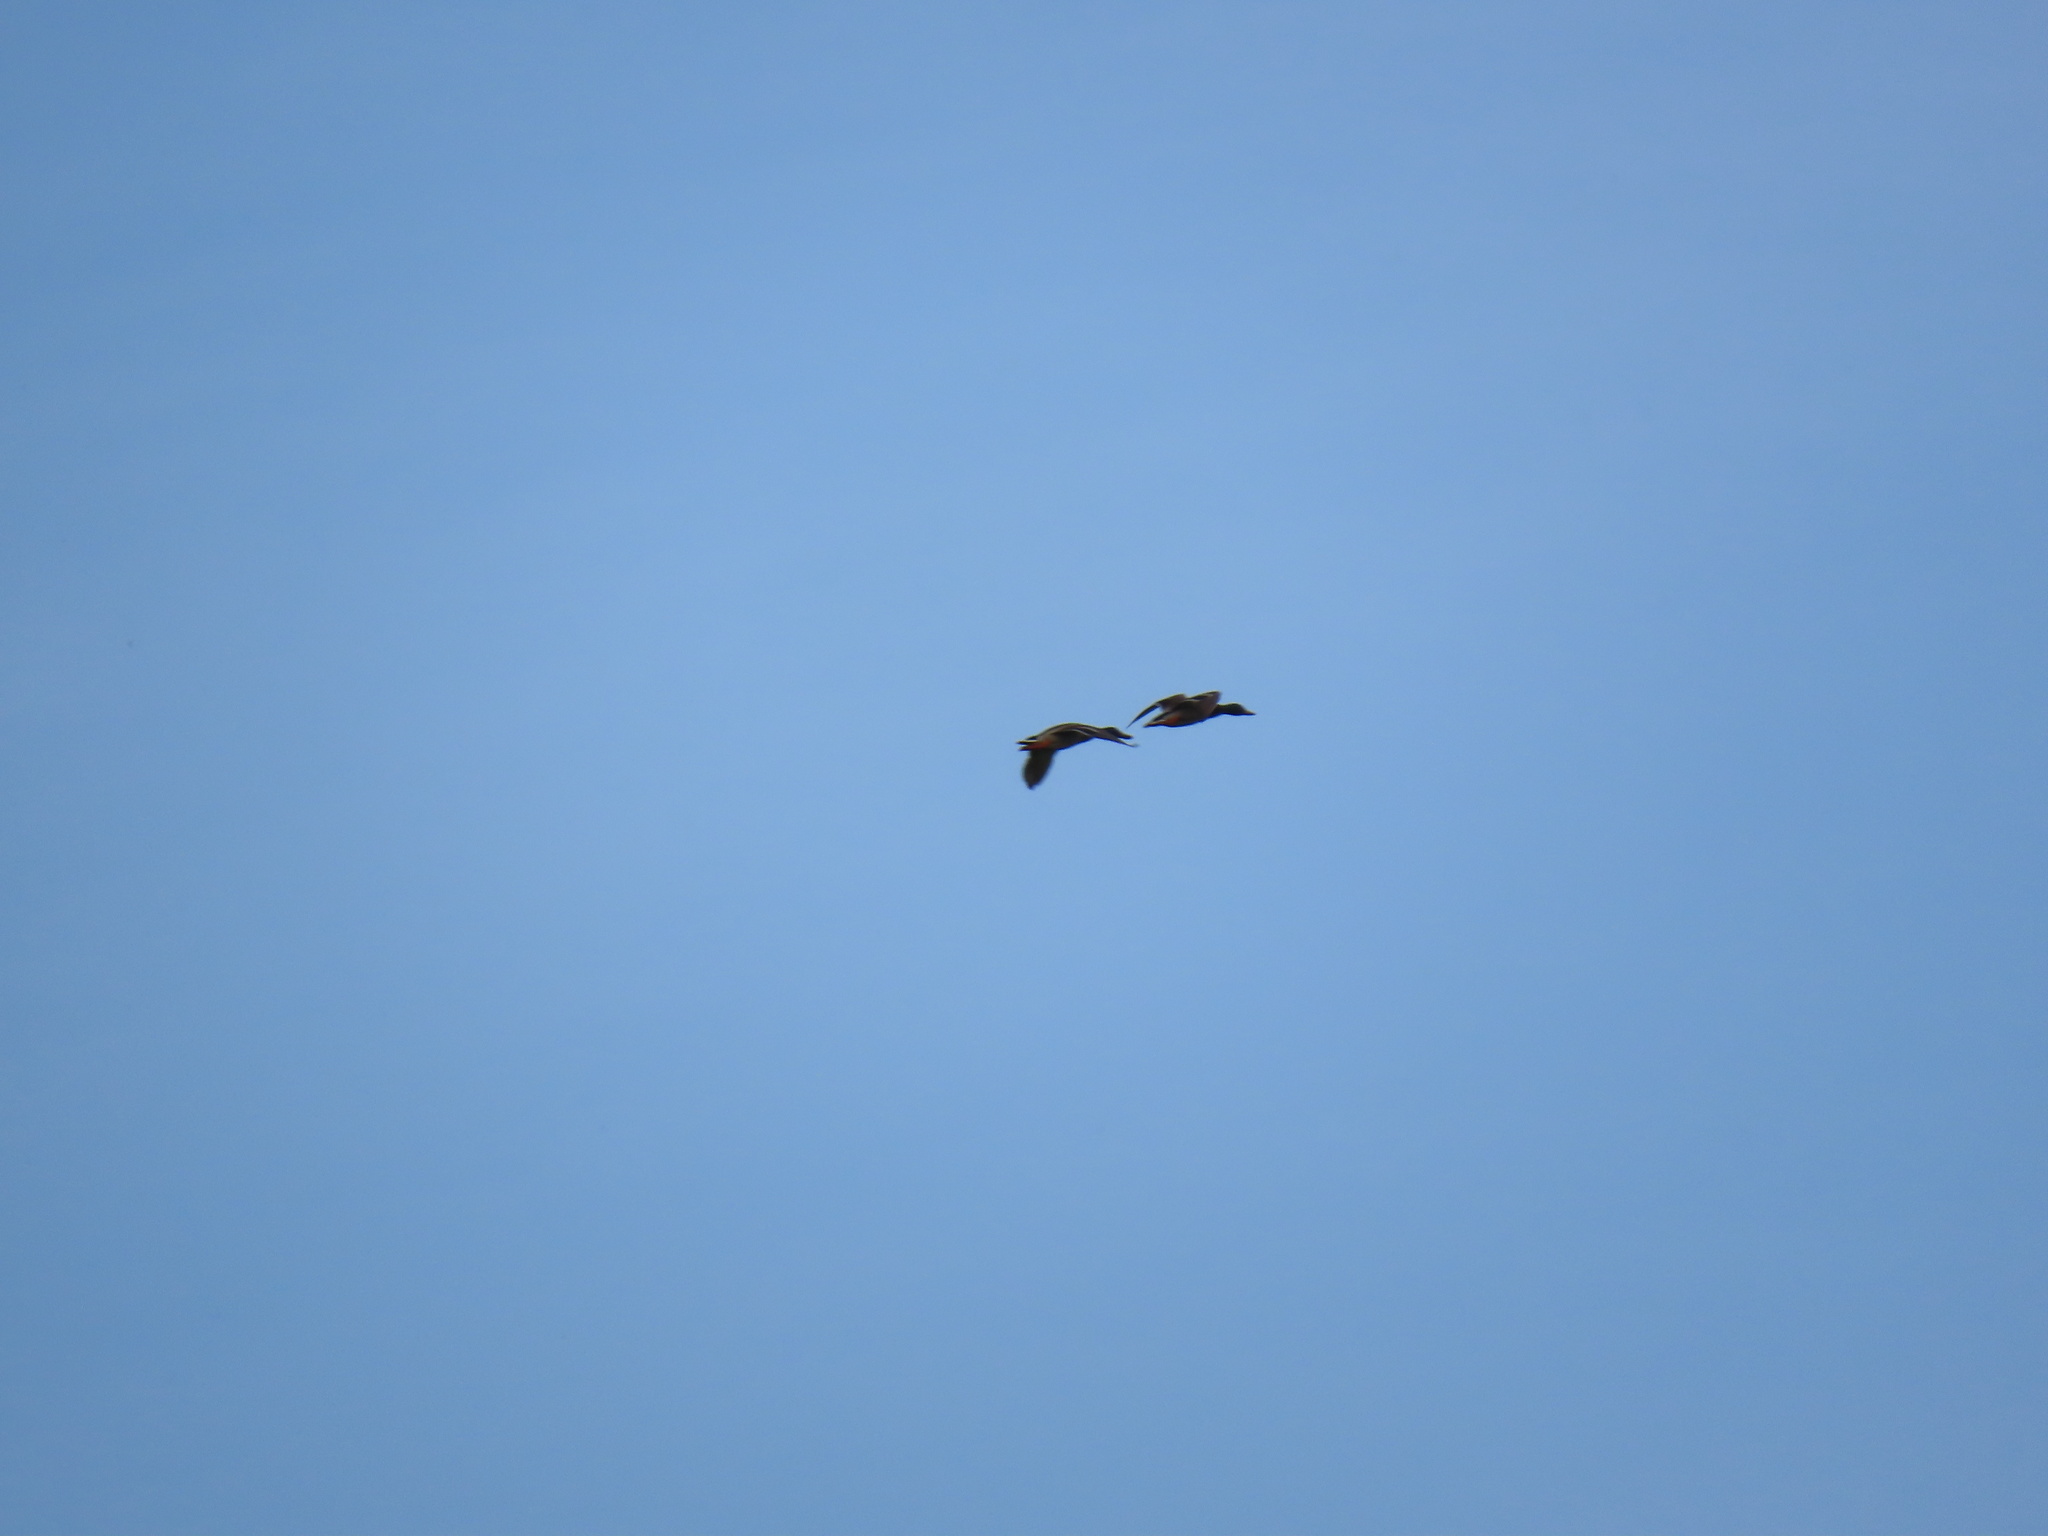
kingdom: Animalia
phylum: Chordata
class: Aves
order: Anseriformes
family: Anatidae
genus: Anas
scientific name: Anas platyrhynchos
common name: Mallard
